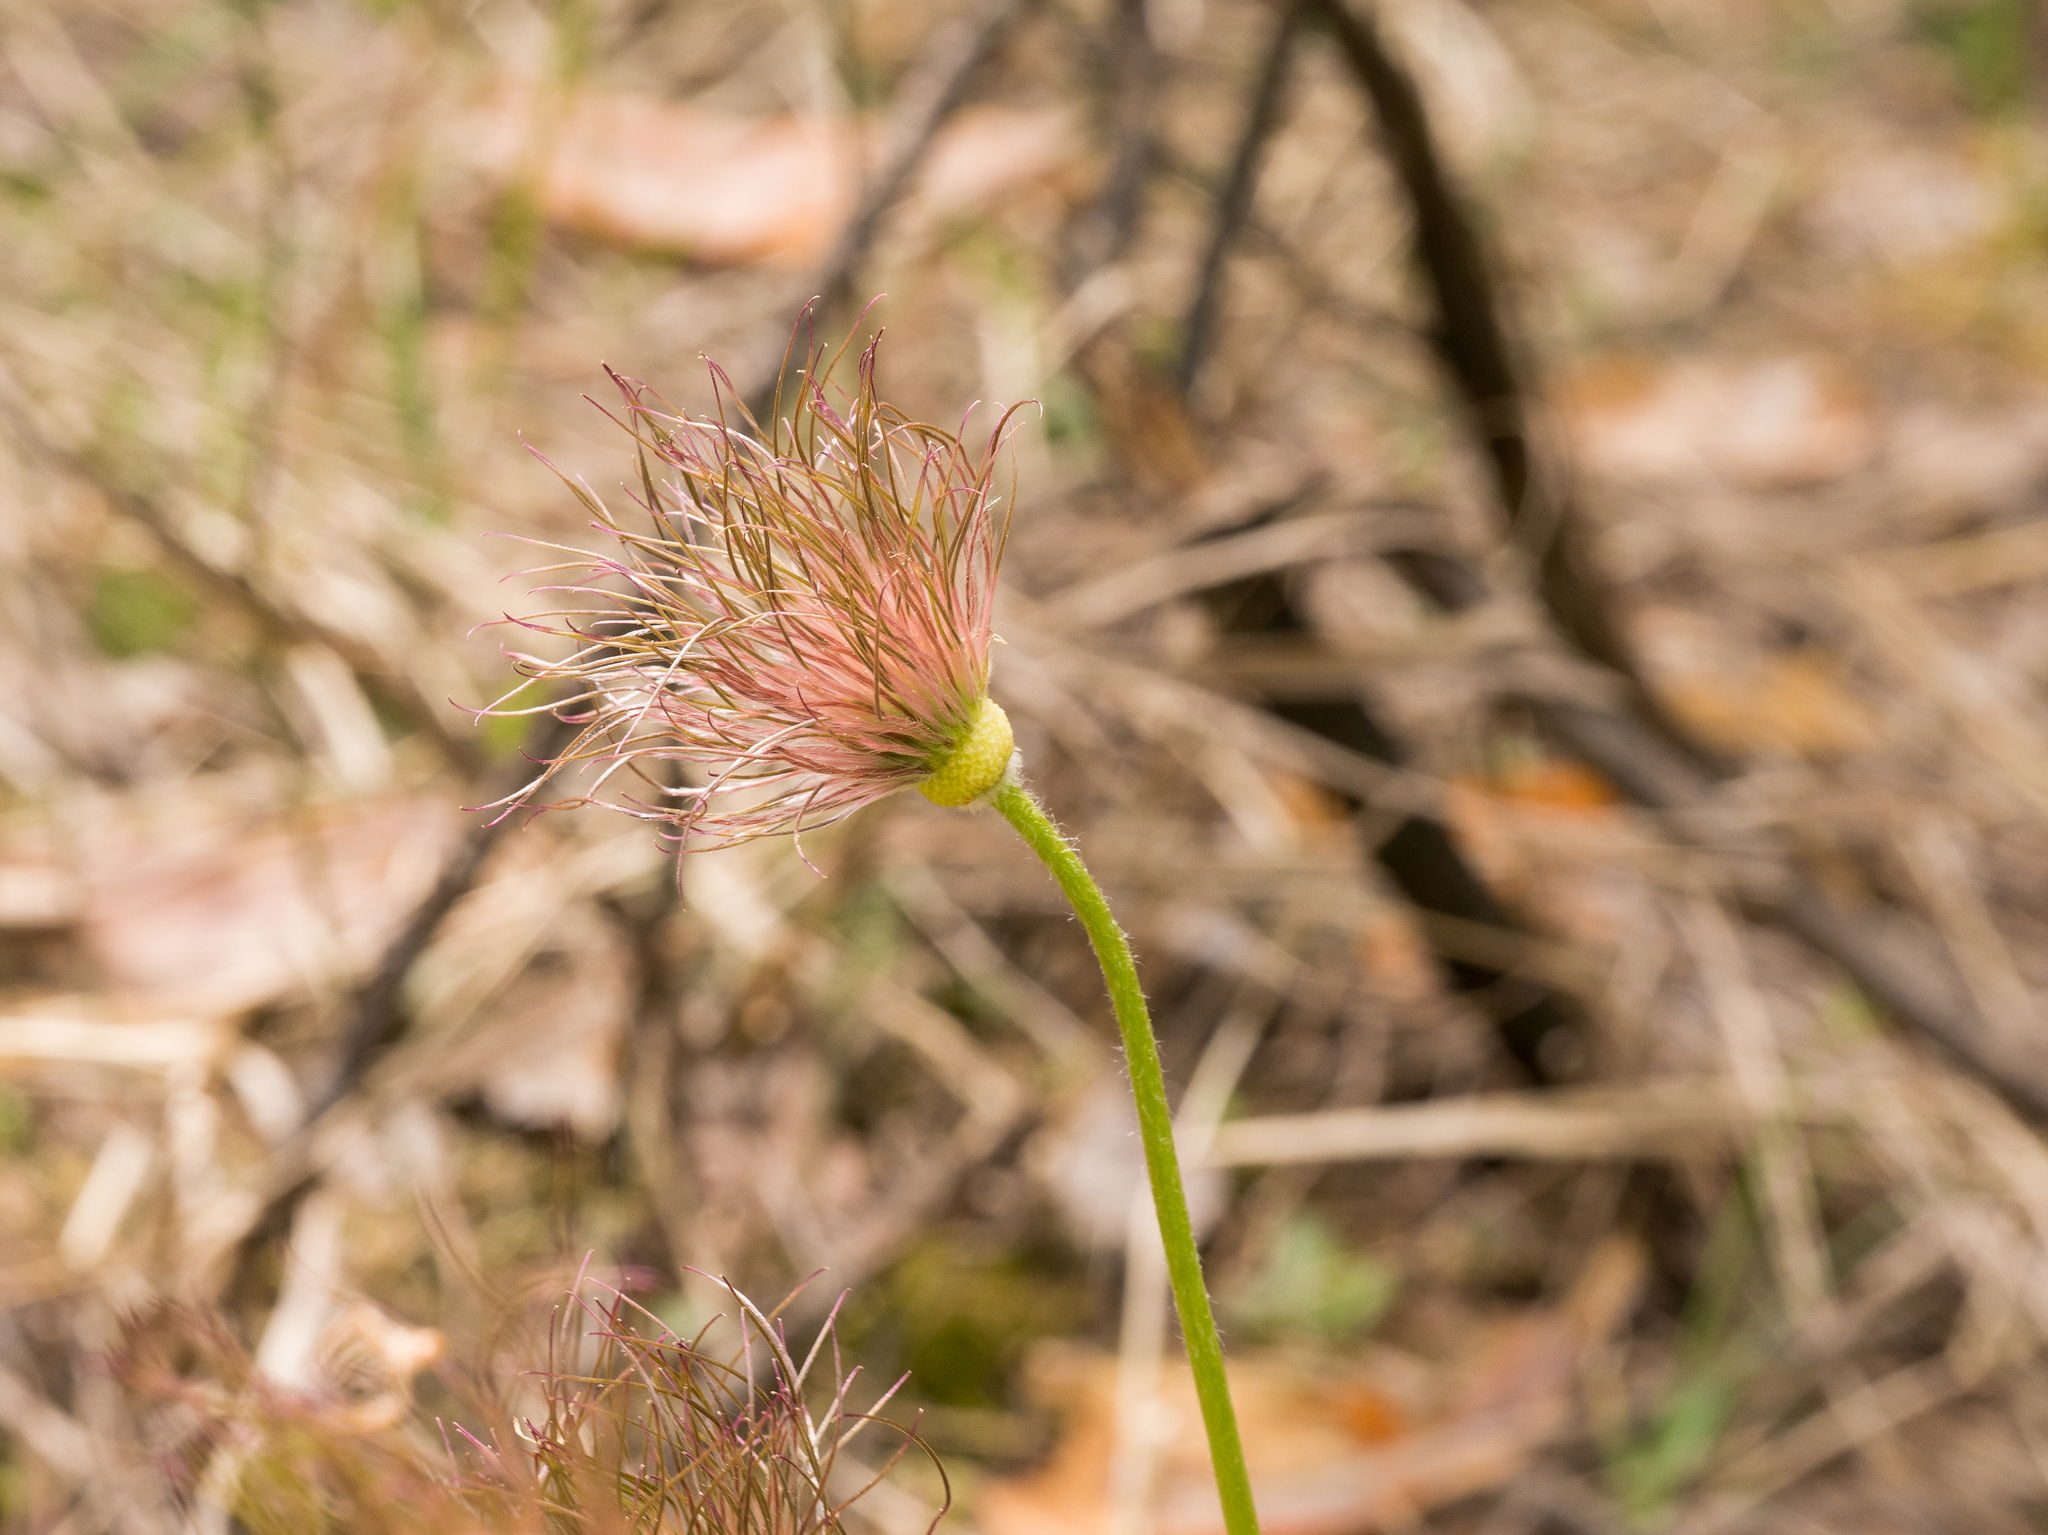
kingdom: Plantae
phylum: Tracheophyta
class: Magnoliopsida
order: Ranunculales
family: Ranunculaceae
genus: Pulsatilla
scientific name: Pulsatilla patens
